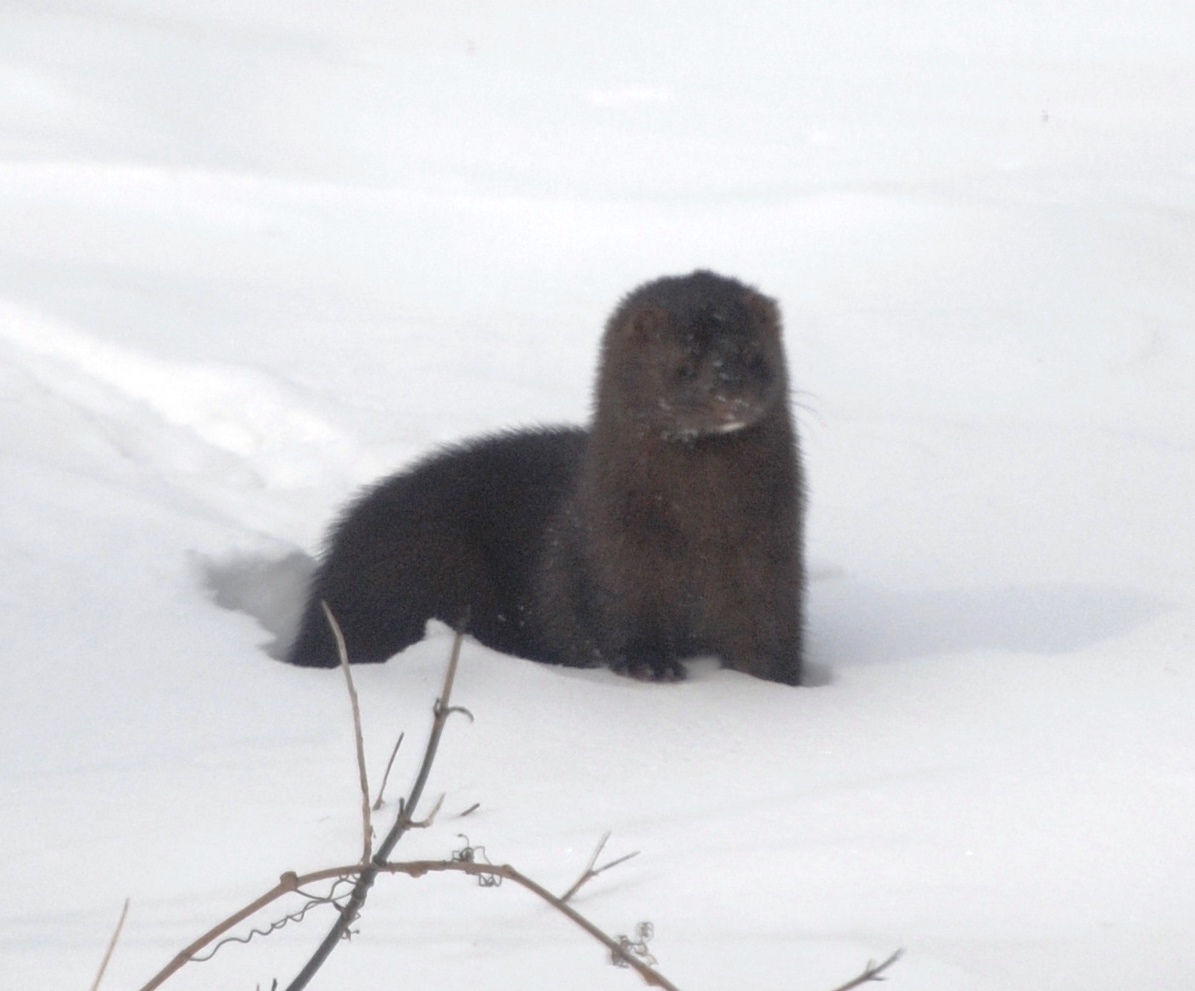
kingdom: Animalia
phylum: Chordata
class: Mammalia
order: Carnivora
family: Mustelidae
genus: Mustela
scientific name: Mustela
